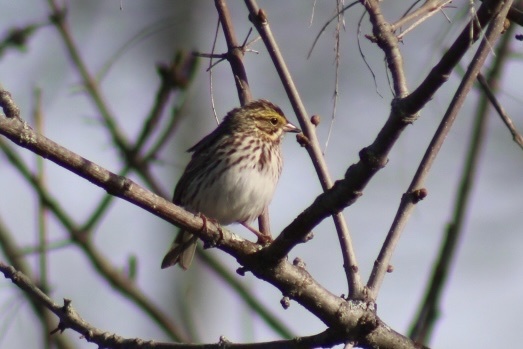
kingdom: Animalia
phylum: Chordata
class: Aves
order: Passeriformes
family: Passerellidae
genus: Passerculus
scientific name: Passerculus sandwichensis
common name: Savannah sparrow
